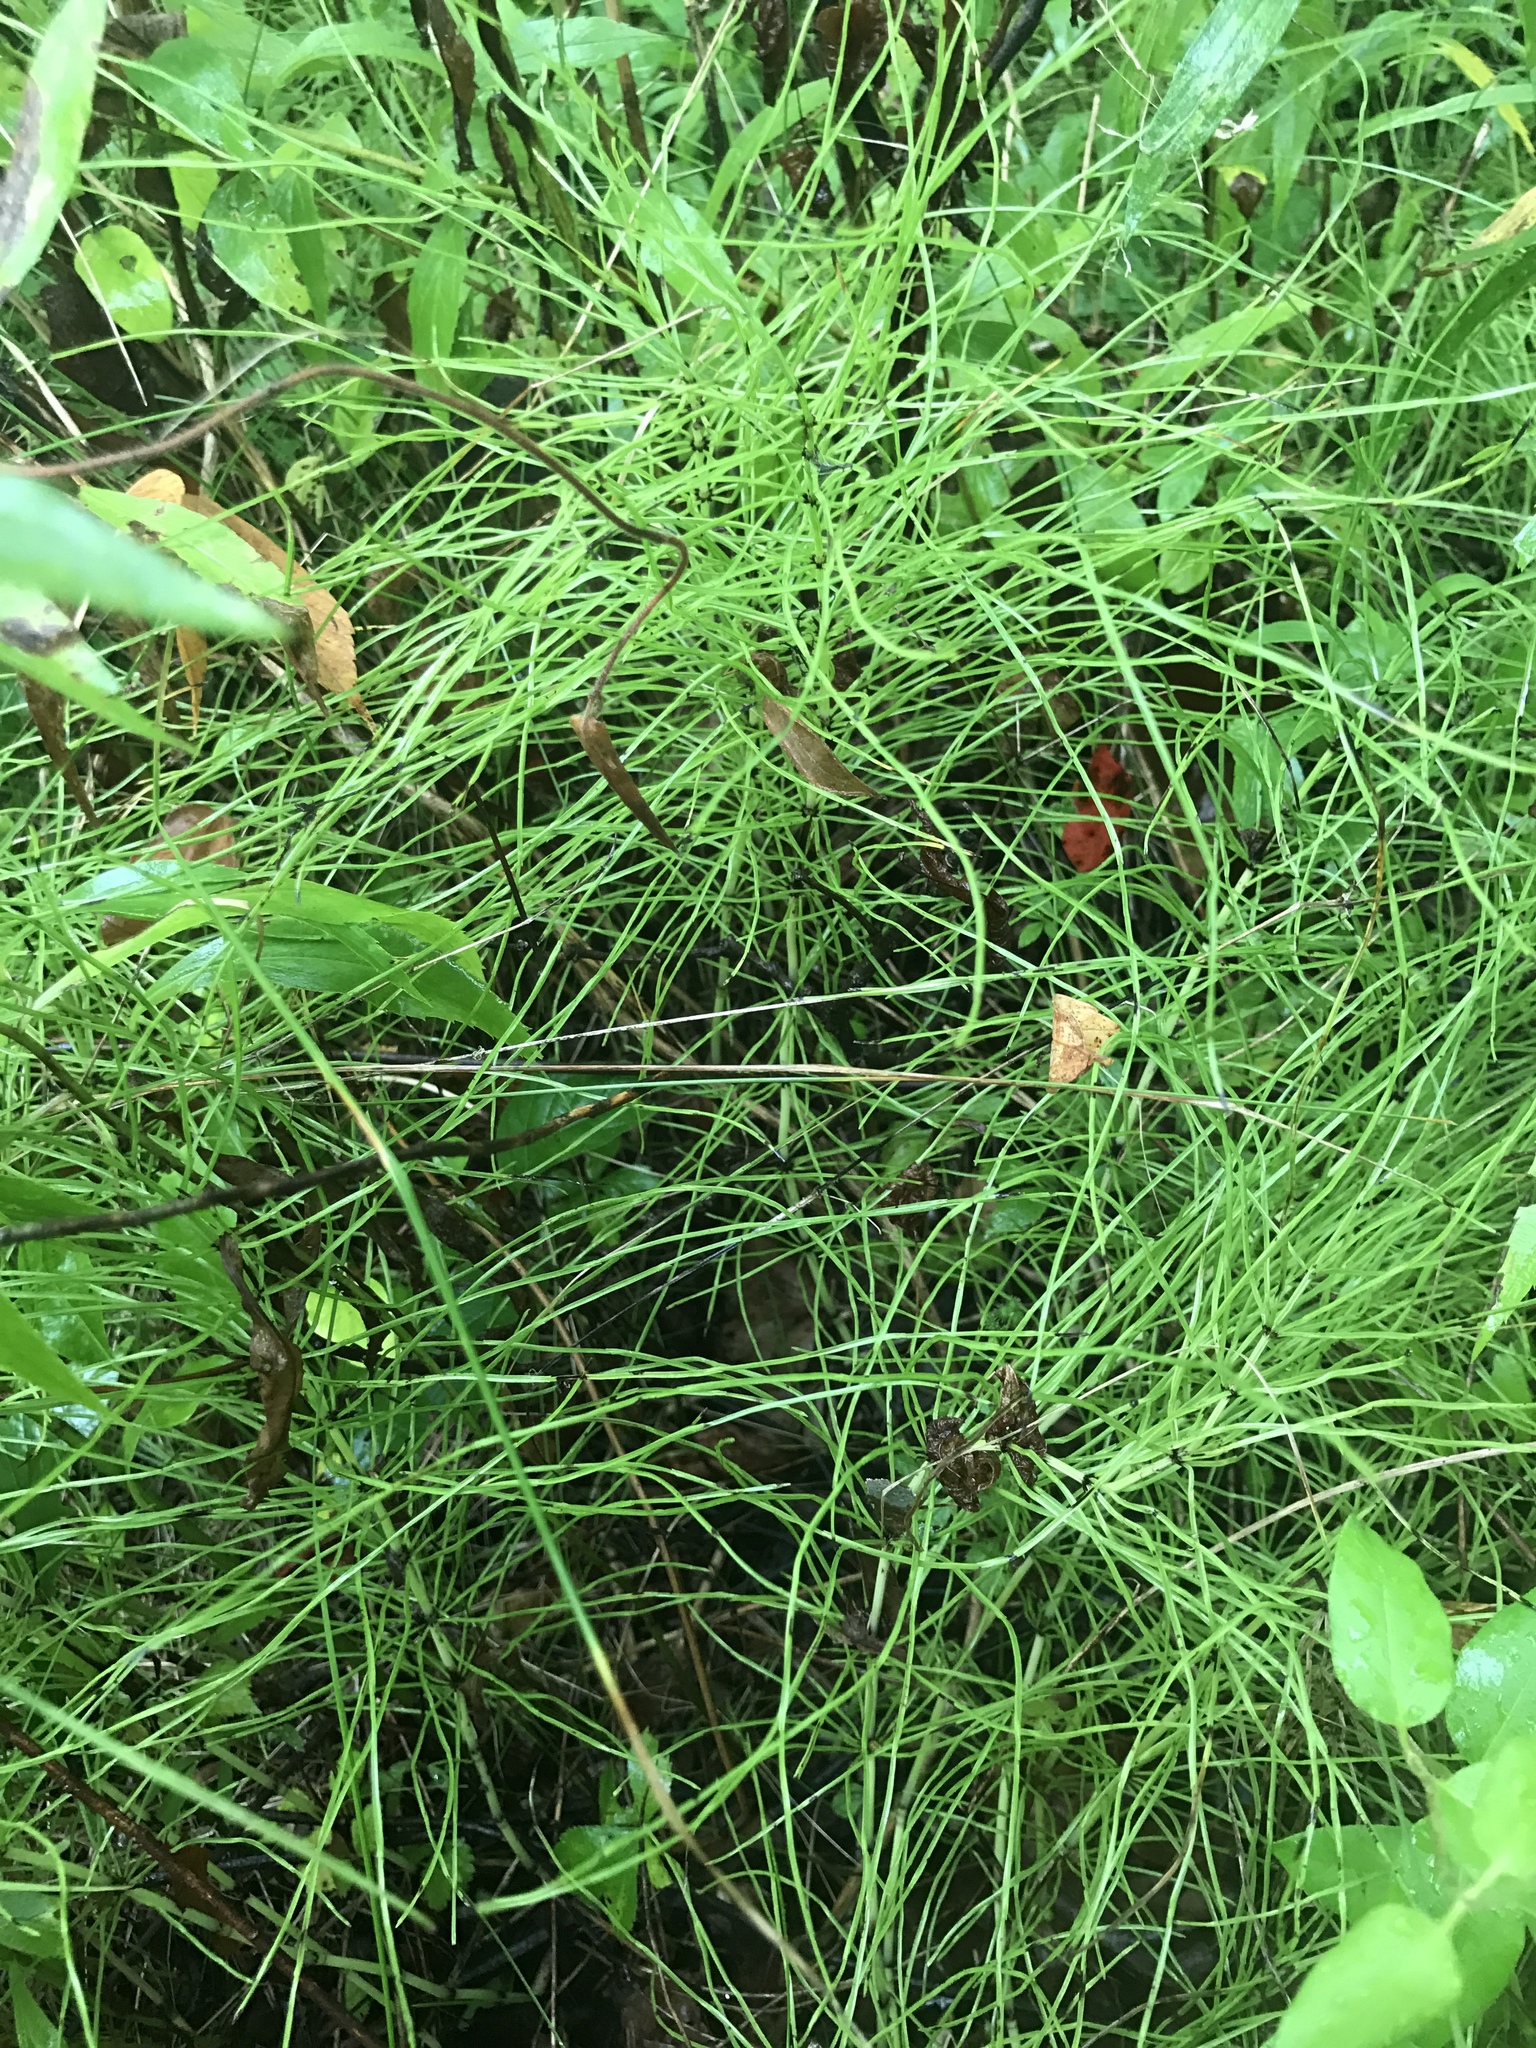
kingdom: Plantae
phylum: Tracheophyta
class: Polypodiopsida
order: Equisetales
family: Equisetaceae
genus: Equisetum
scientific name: Equisetum arvense
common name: Field horsetail
